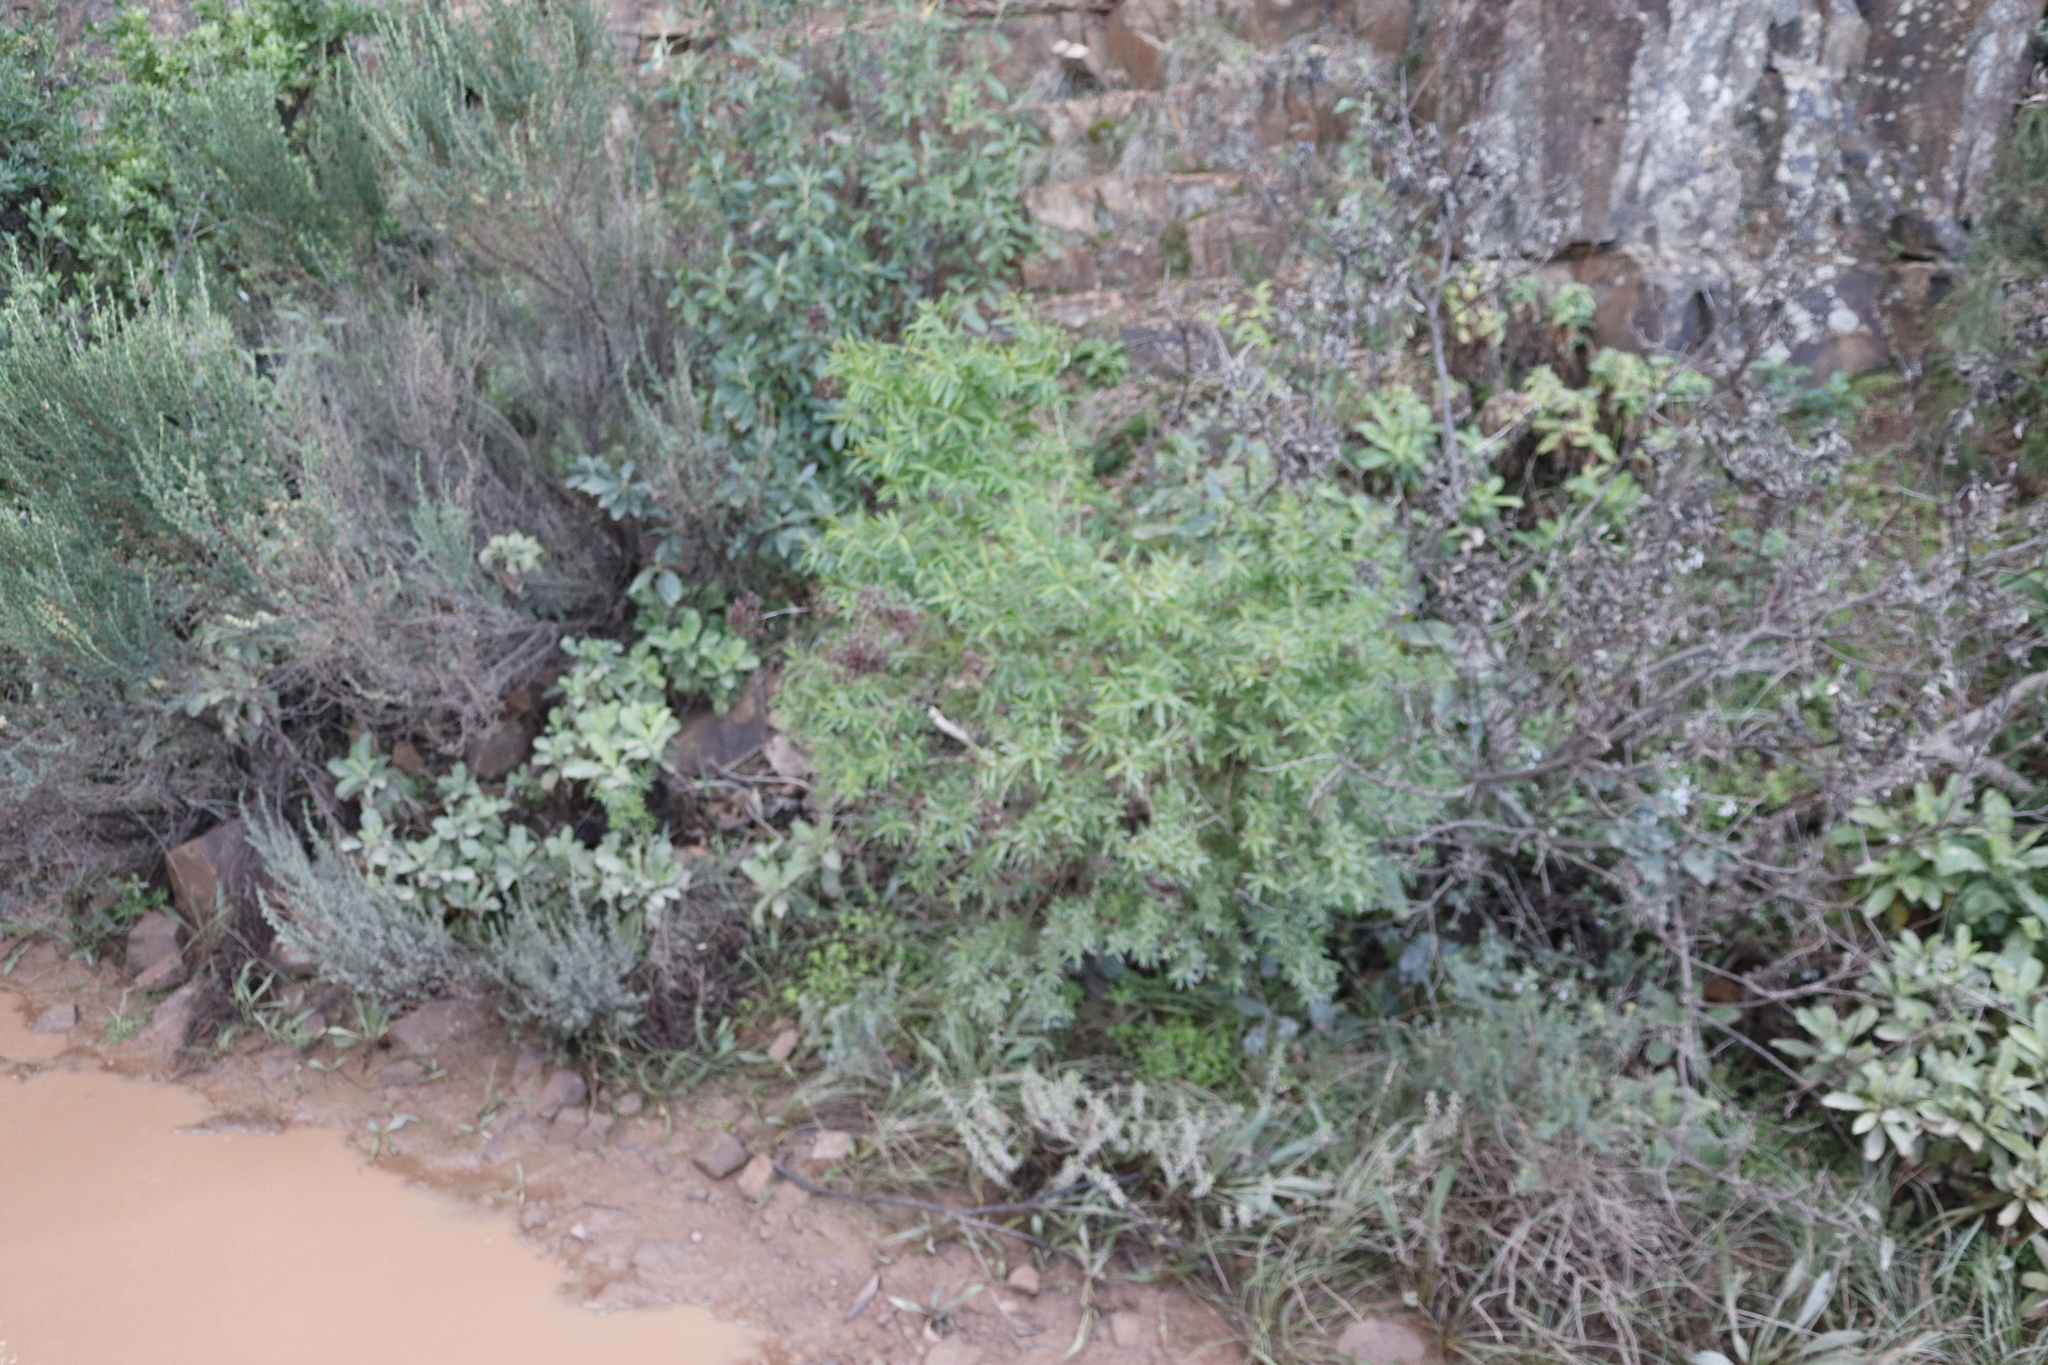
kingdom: Plantae
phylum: Tracheophyta
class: Magnoliopsida
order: Malpighiales
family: Hypericaceae
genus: Hypericum
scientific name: Hypericum canariense
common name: Canary island st. johnswort
